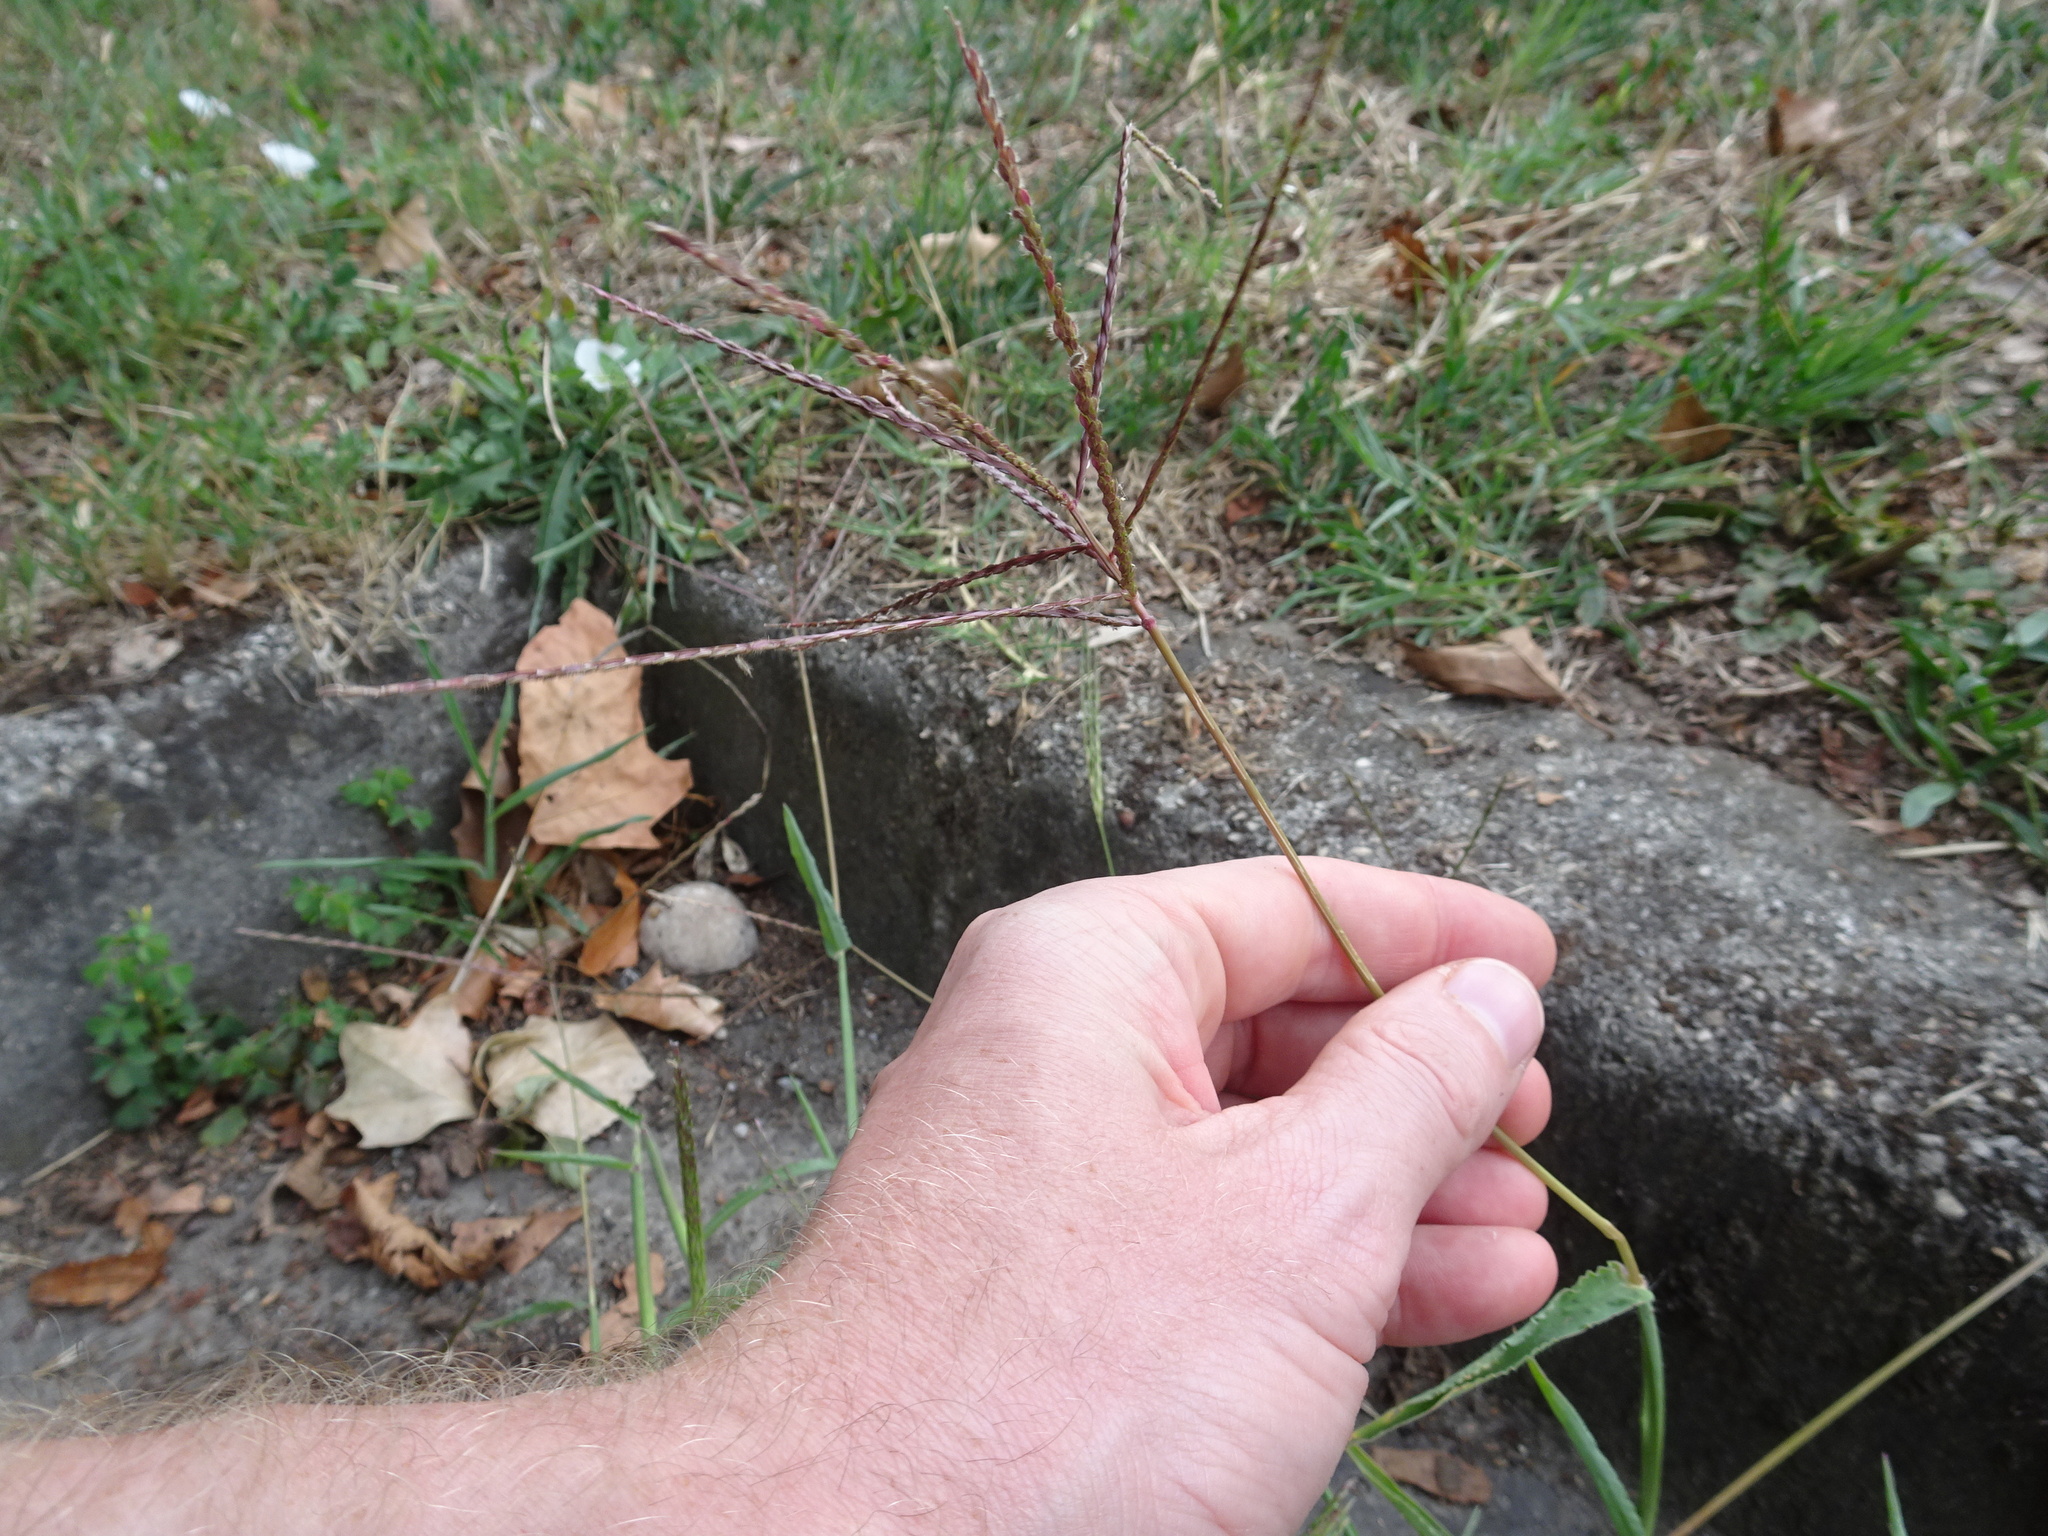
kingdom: Plantae
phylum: Tracheophyta
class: Liliopsida
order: Poales
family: Poaceae
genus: Digitaria
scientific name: Digitaria sanguinalis
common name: Hairy crabgrass
